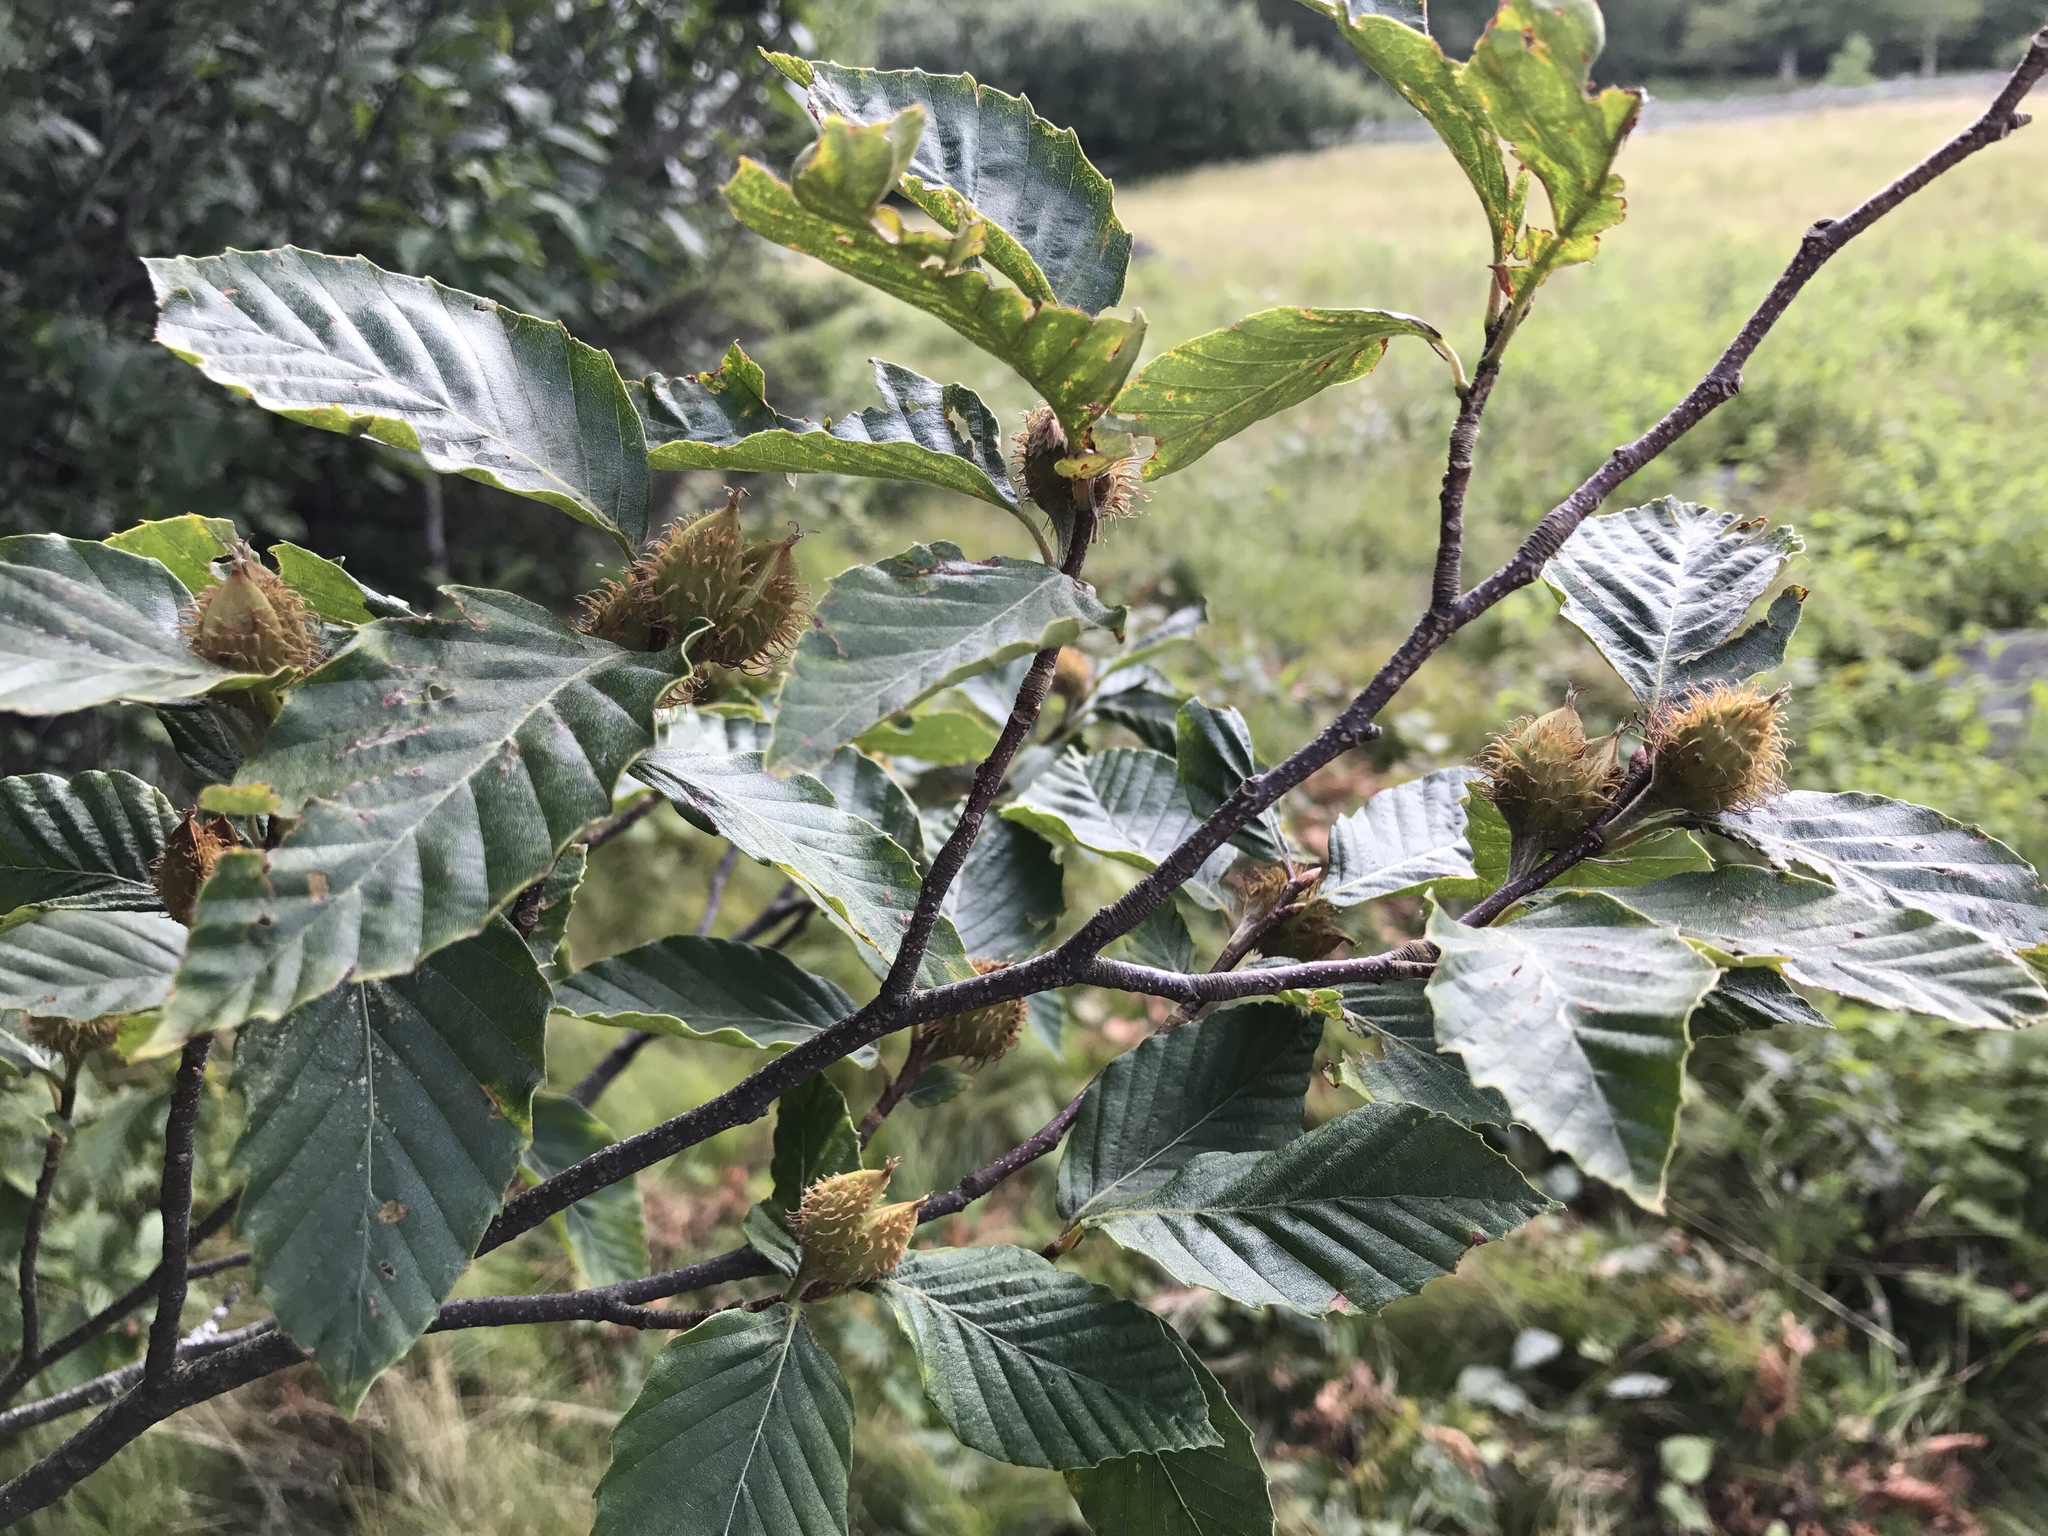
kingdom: Plantae
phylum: Tracheophyta
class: Magnoliopsida
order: Fagales
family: Fagaceae
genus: Fagus
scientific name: Fagus grandifolia
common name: American beech
